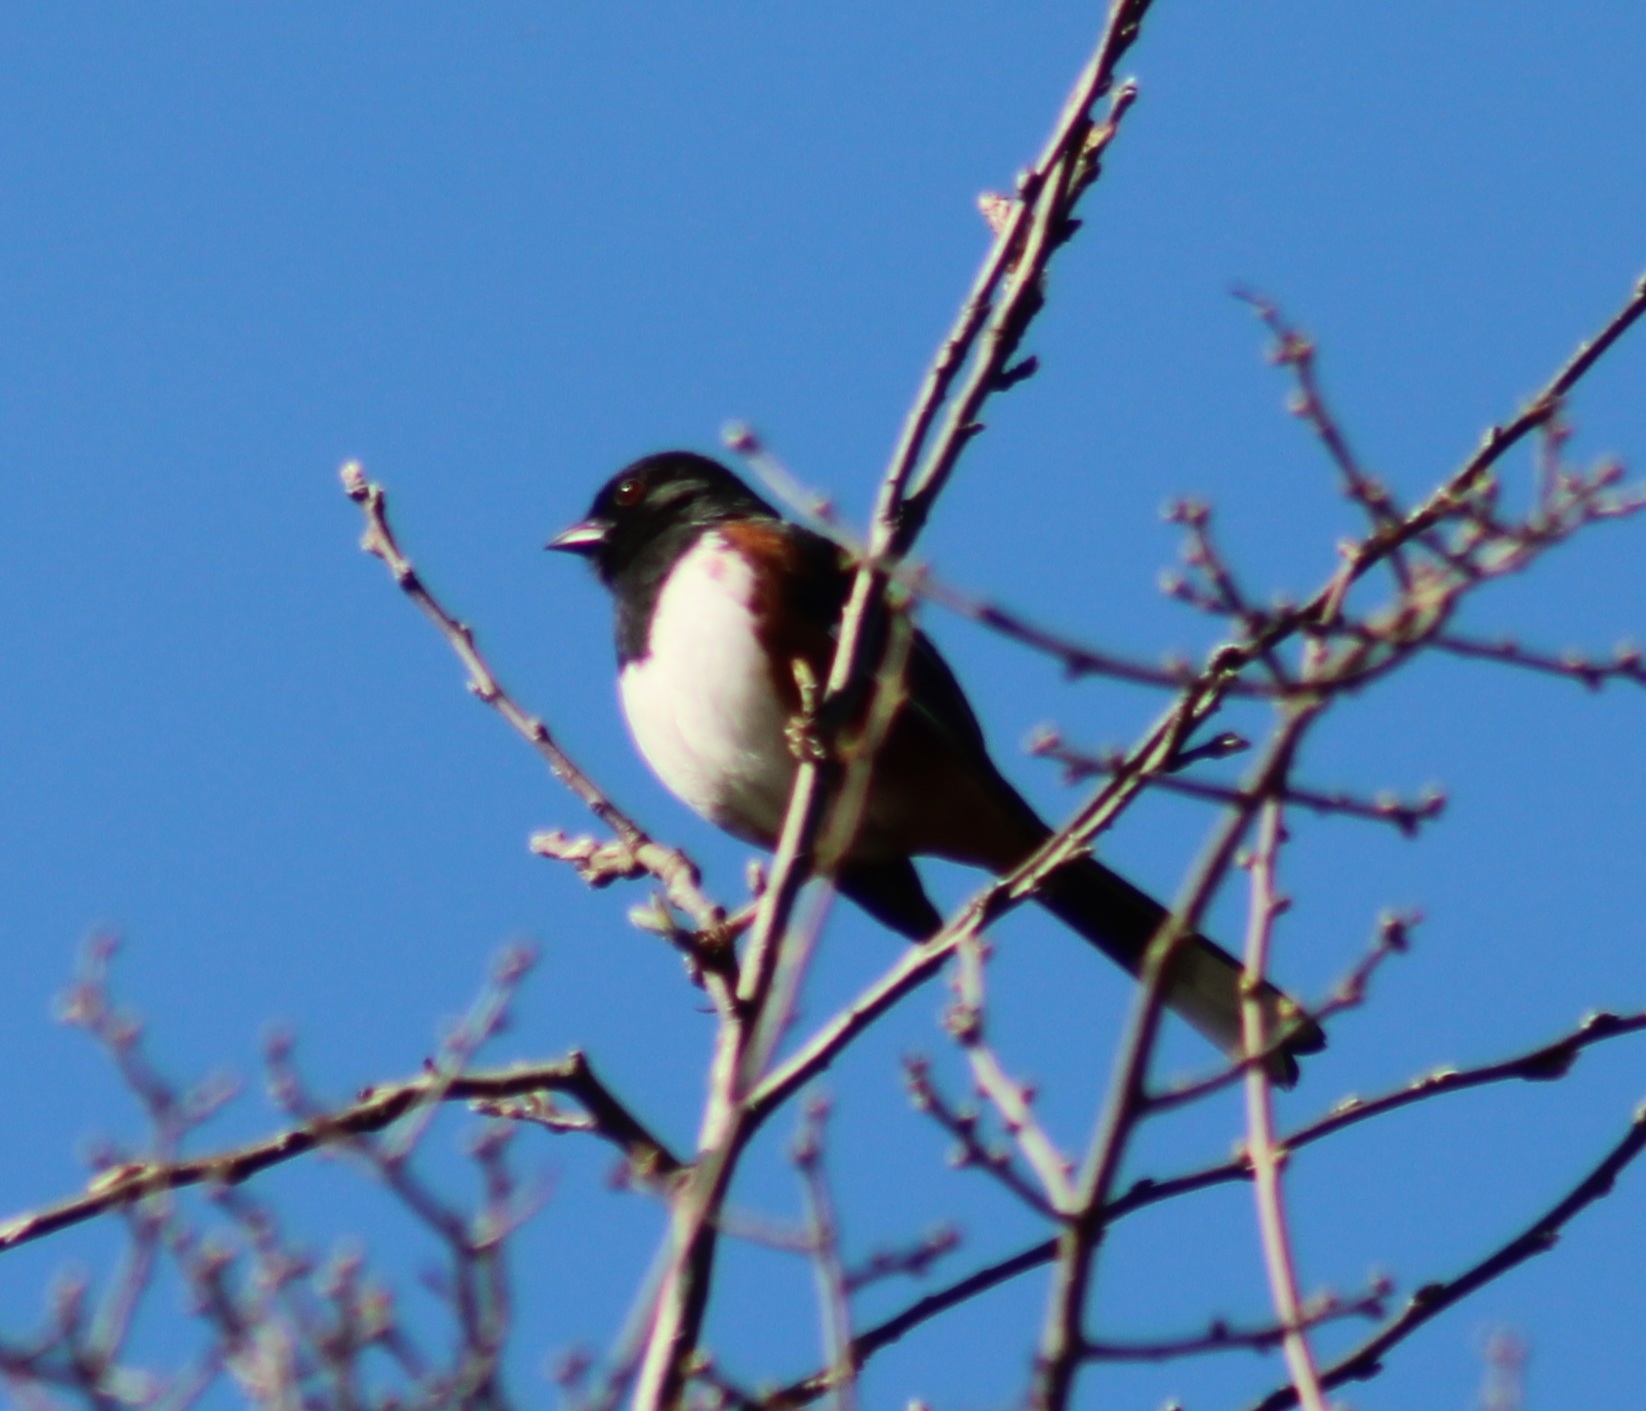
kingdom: Animalia
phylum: Chordata
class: Aves
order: Passeriformes
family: Passerellidae
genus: Pipilo
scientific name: Pipilo erythrophthalmus
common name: Eastern towhee
